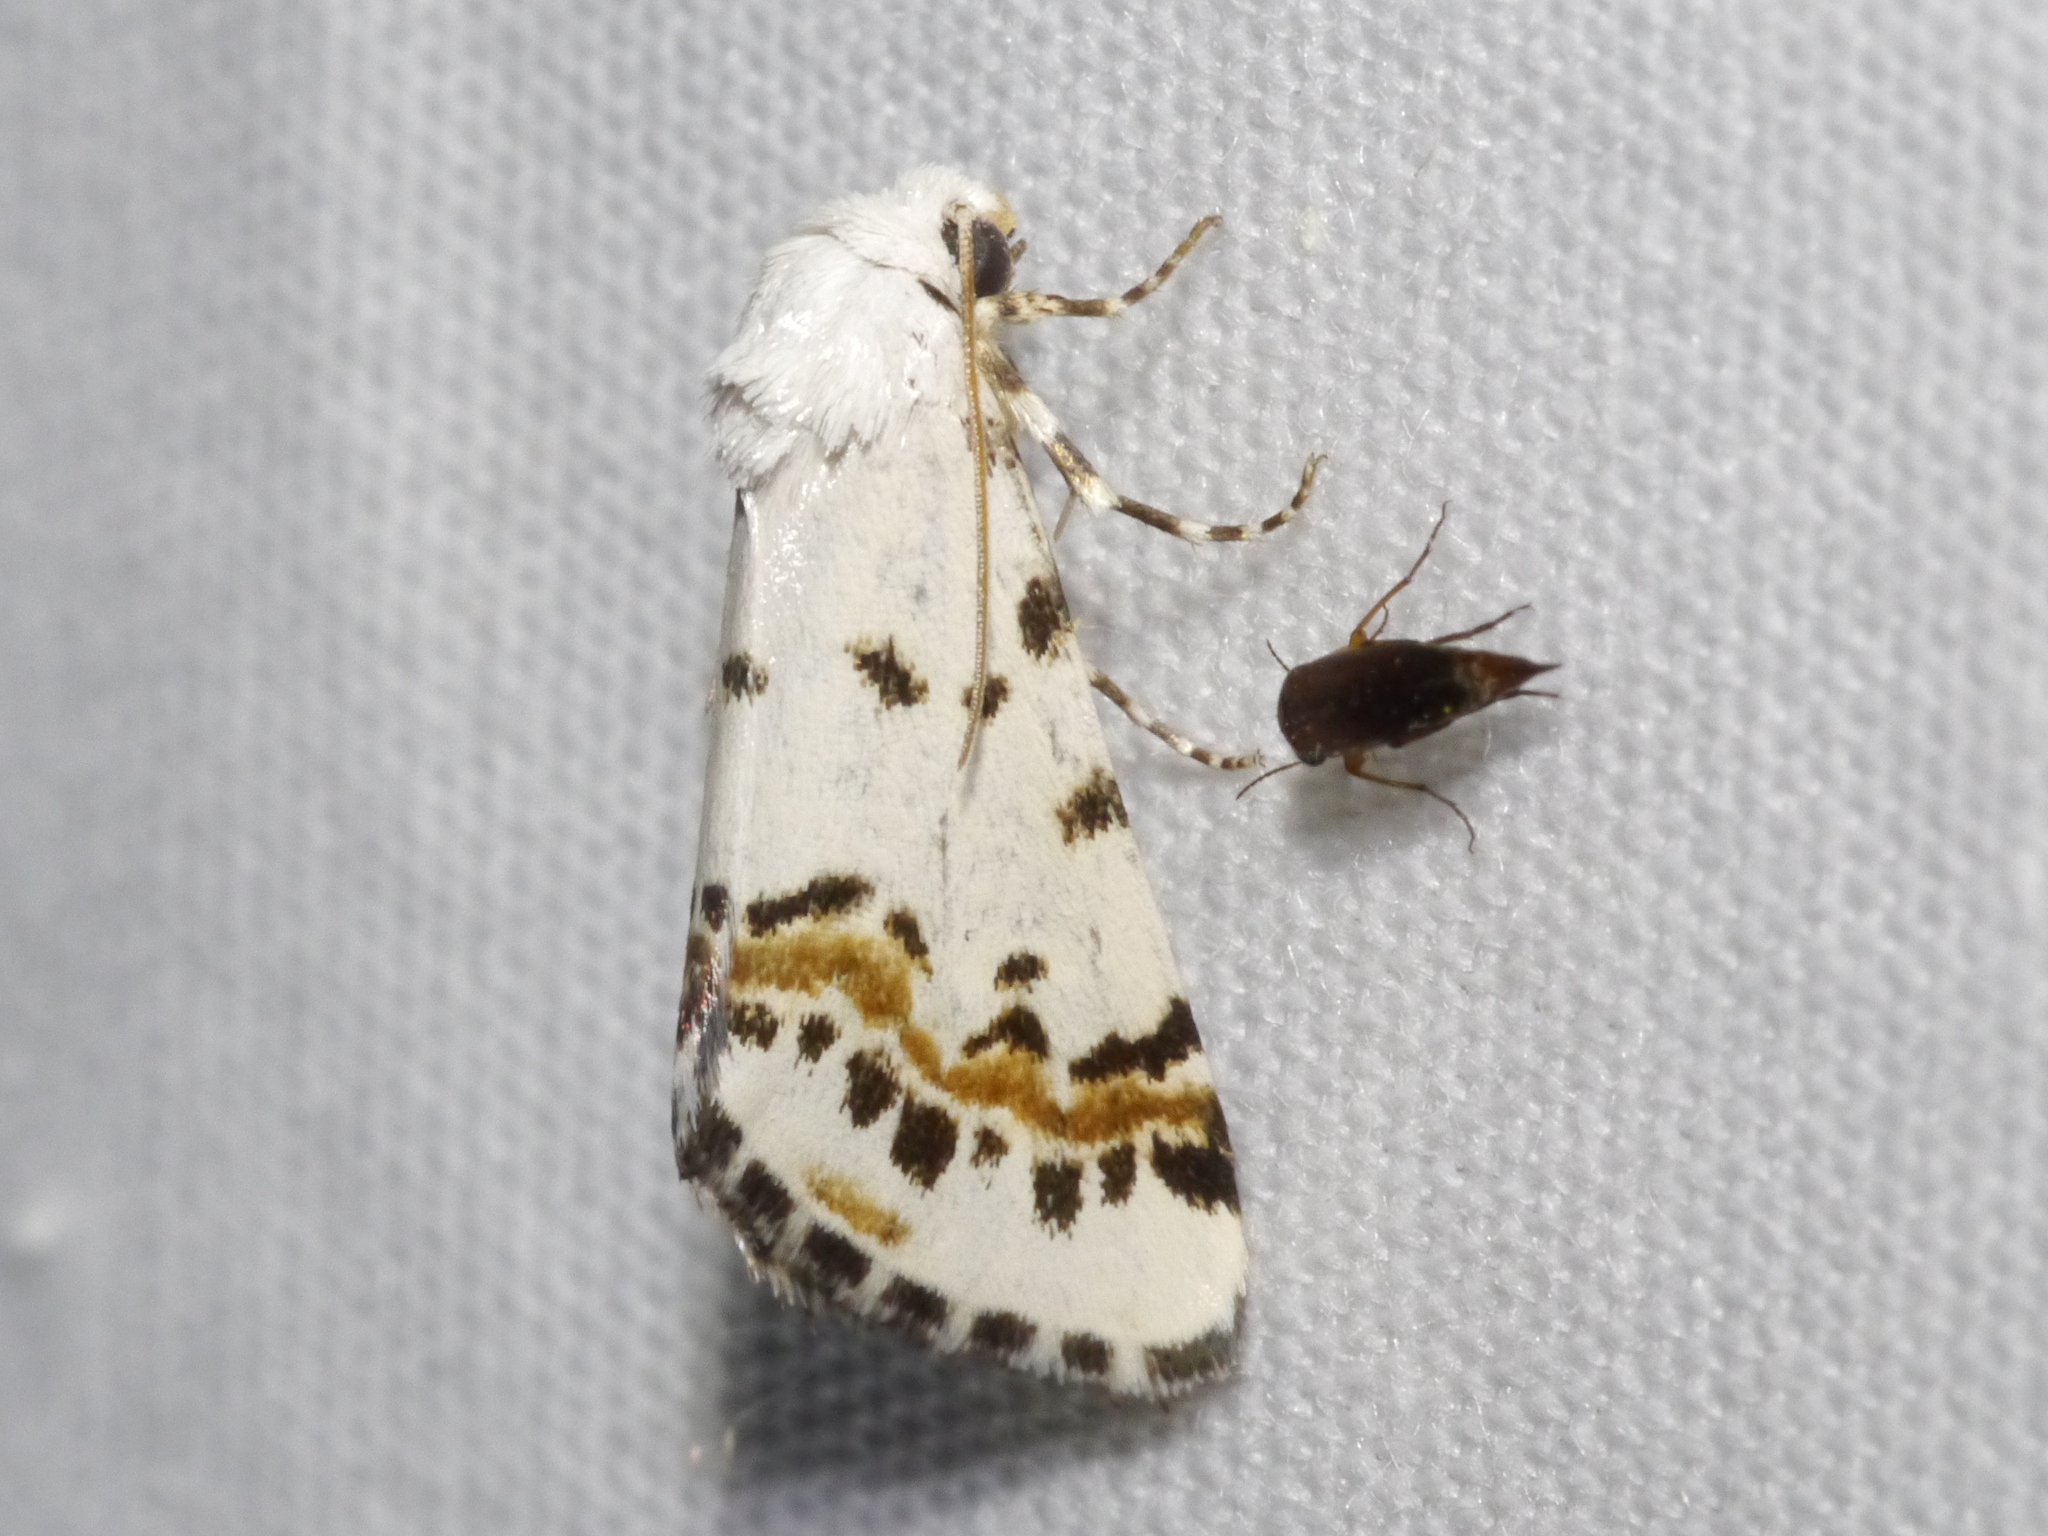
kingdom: Animalia
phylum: Arthropoda
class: Insecta
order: Lepidoptera
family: Noctuidae
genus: Grotella
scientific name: Grotella tricolor
